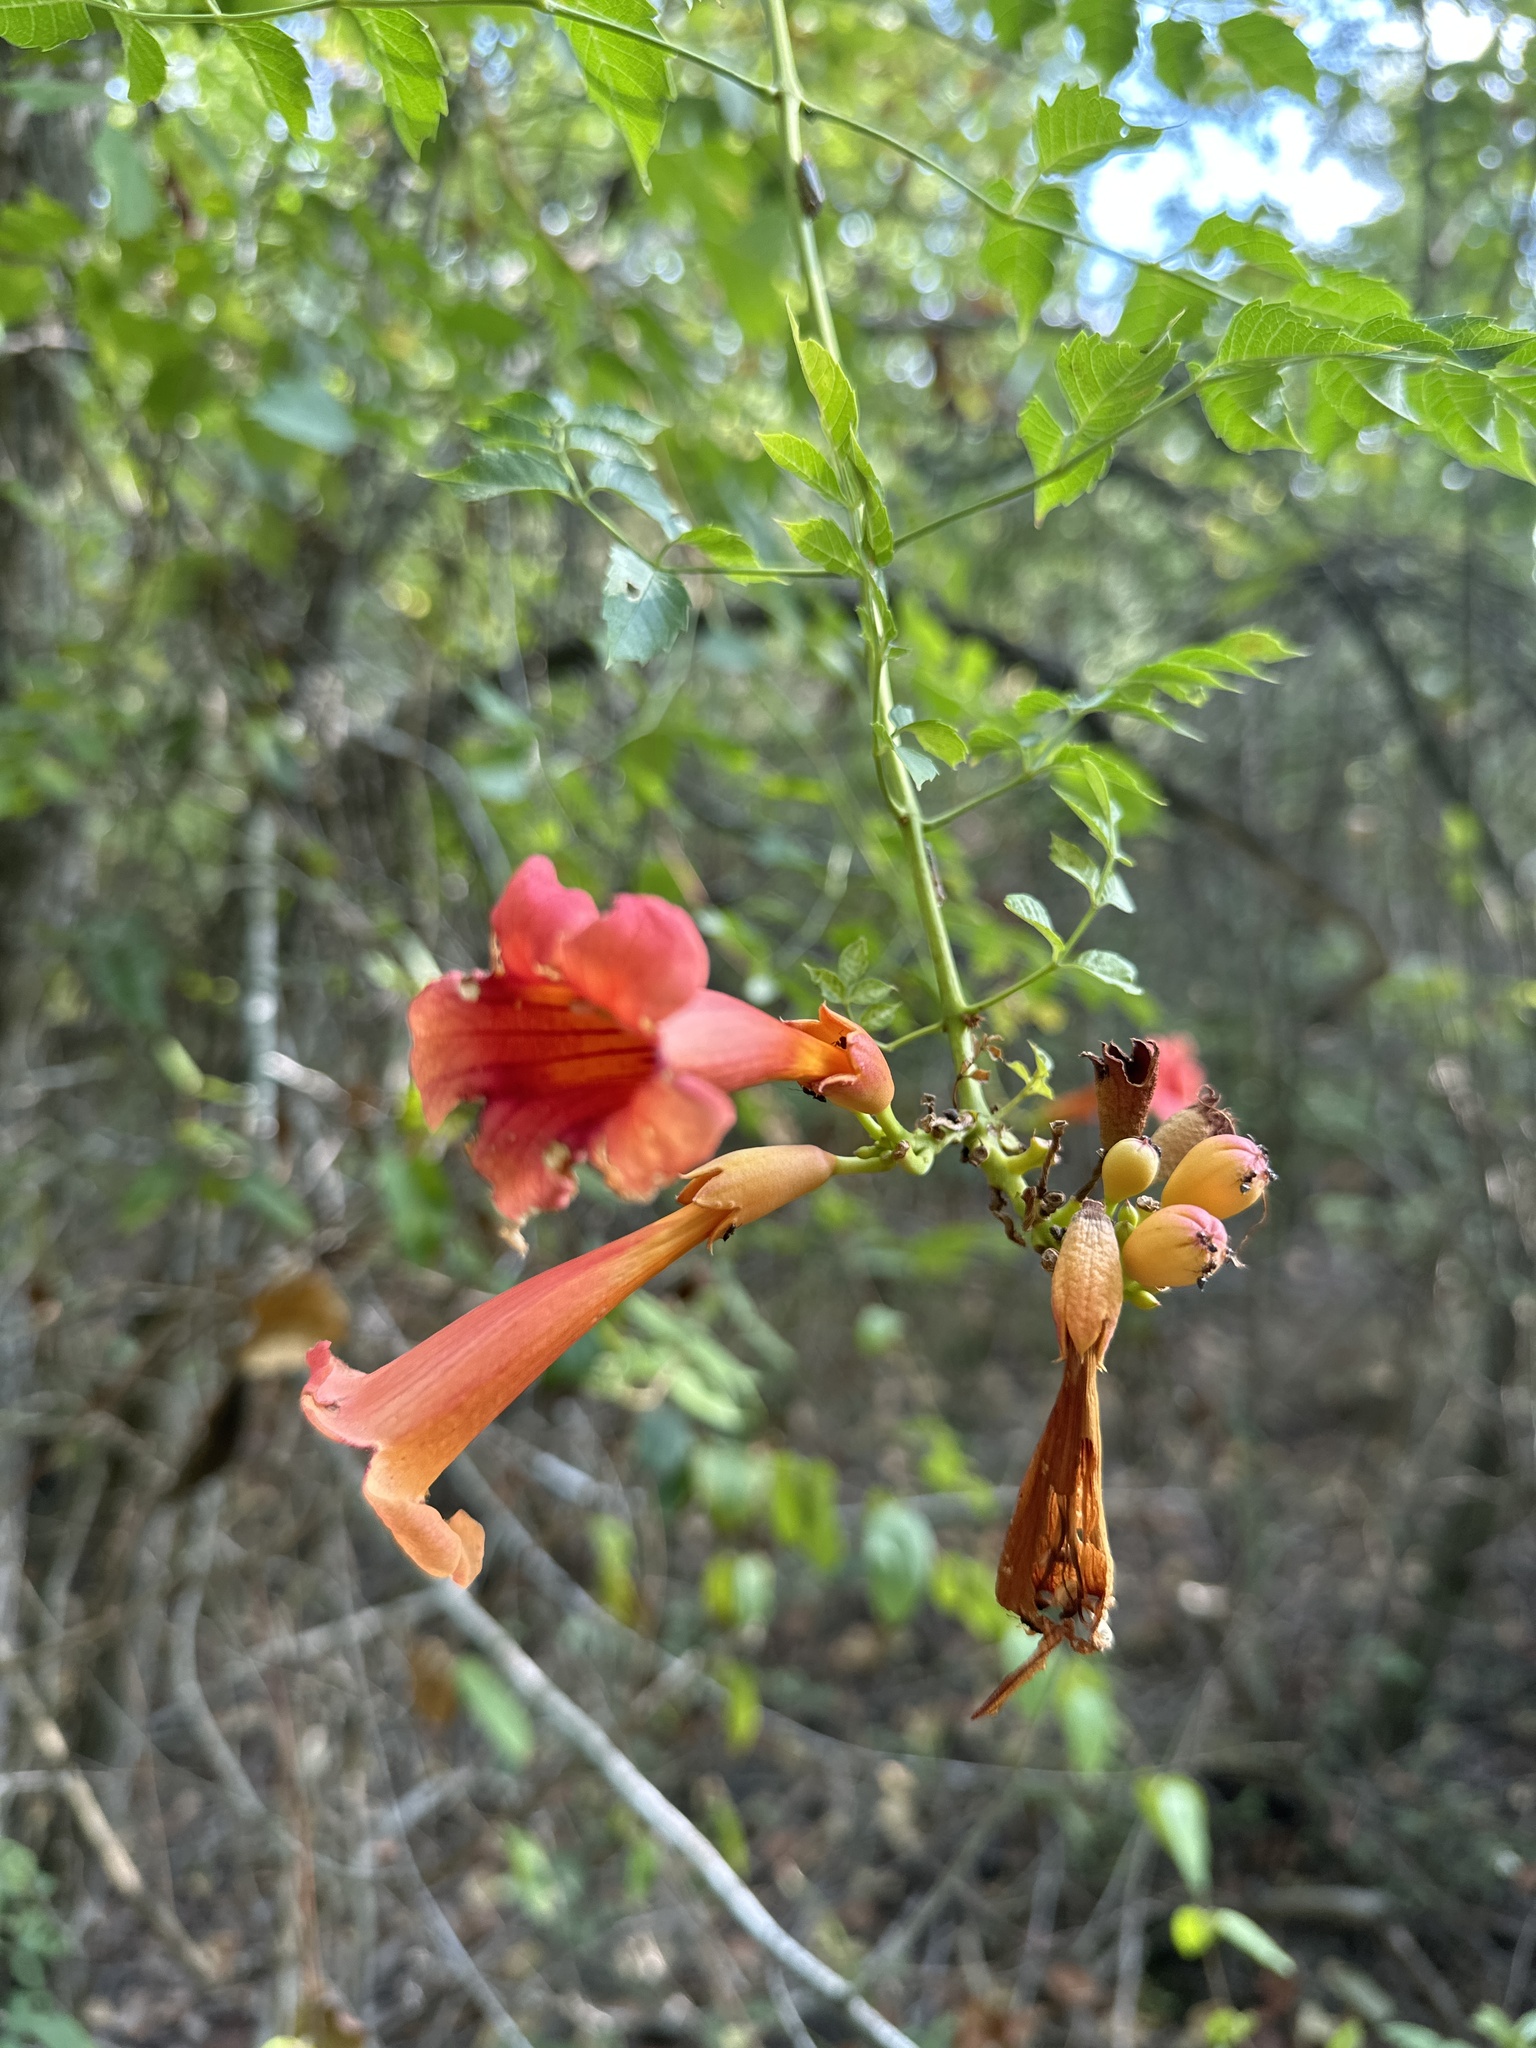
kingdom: Plantae
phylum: Tracheophyta
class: Magnoliopsida
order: Lamiales
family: Bignoniaceae
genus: Campsis
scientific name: Campsis radicans
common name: Trumpet-creeper
